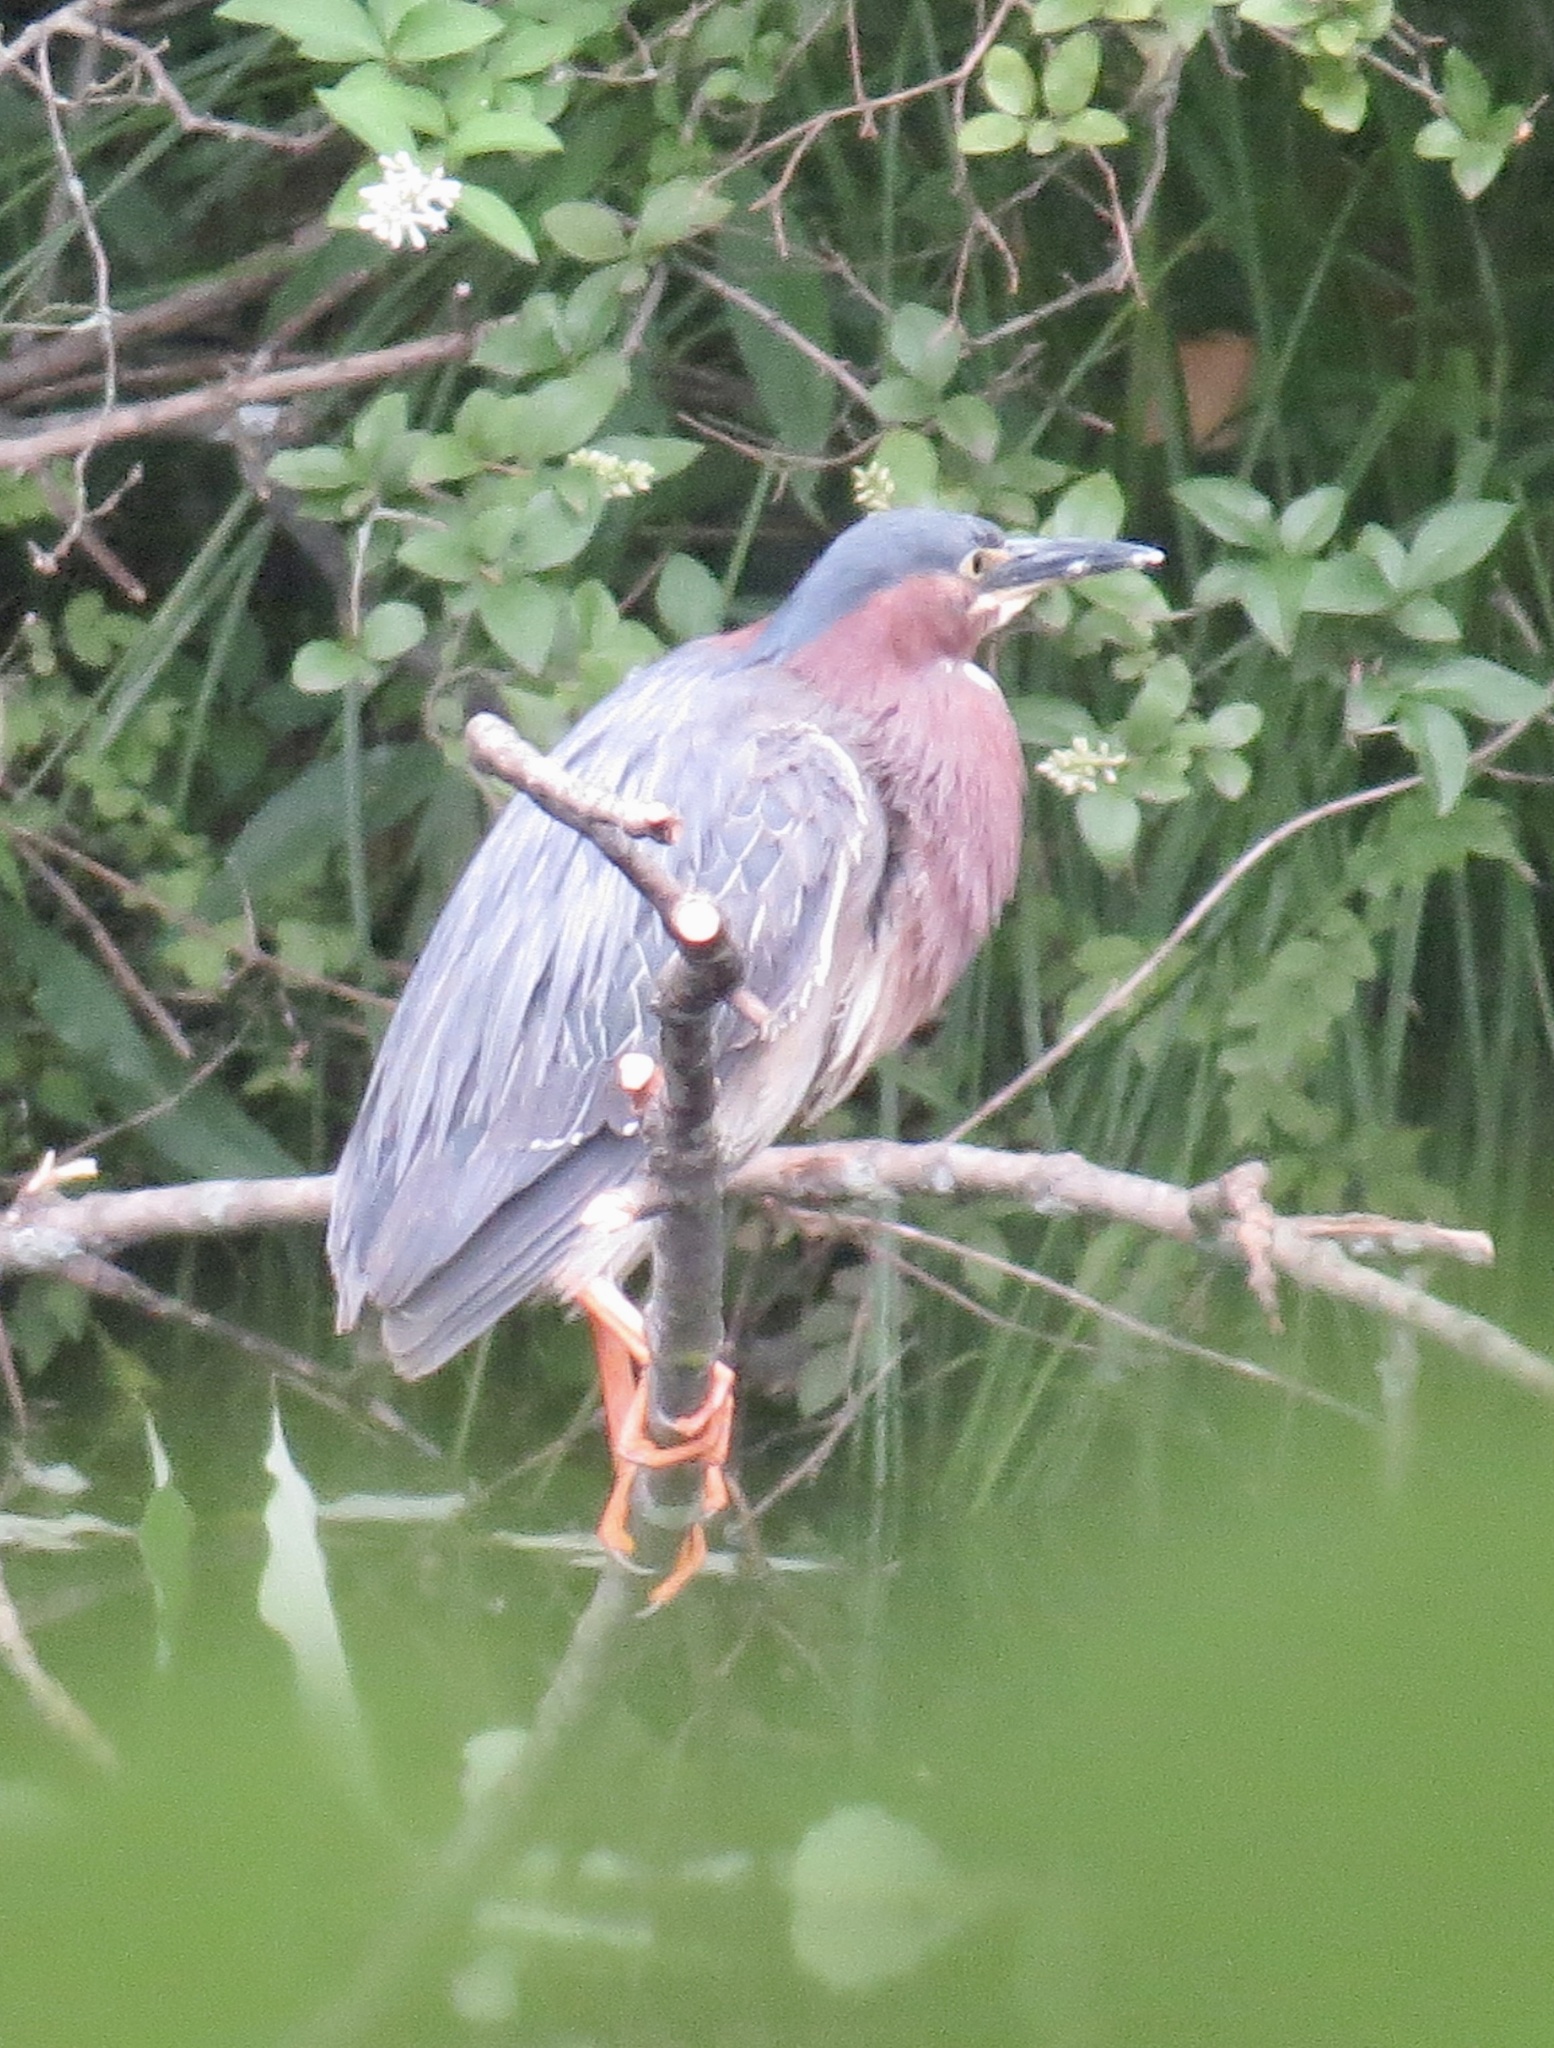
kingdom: Animalia
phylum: Chordata
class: Aves
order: Pelecaniformes
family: Ardeidae
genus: Butorides
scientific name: Butorides virescens
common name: Green heron
